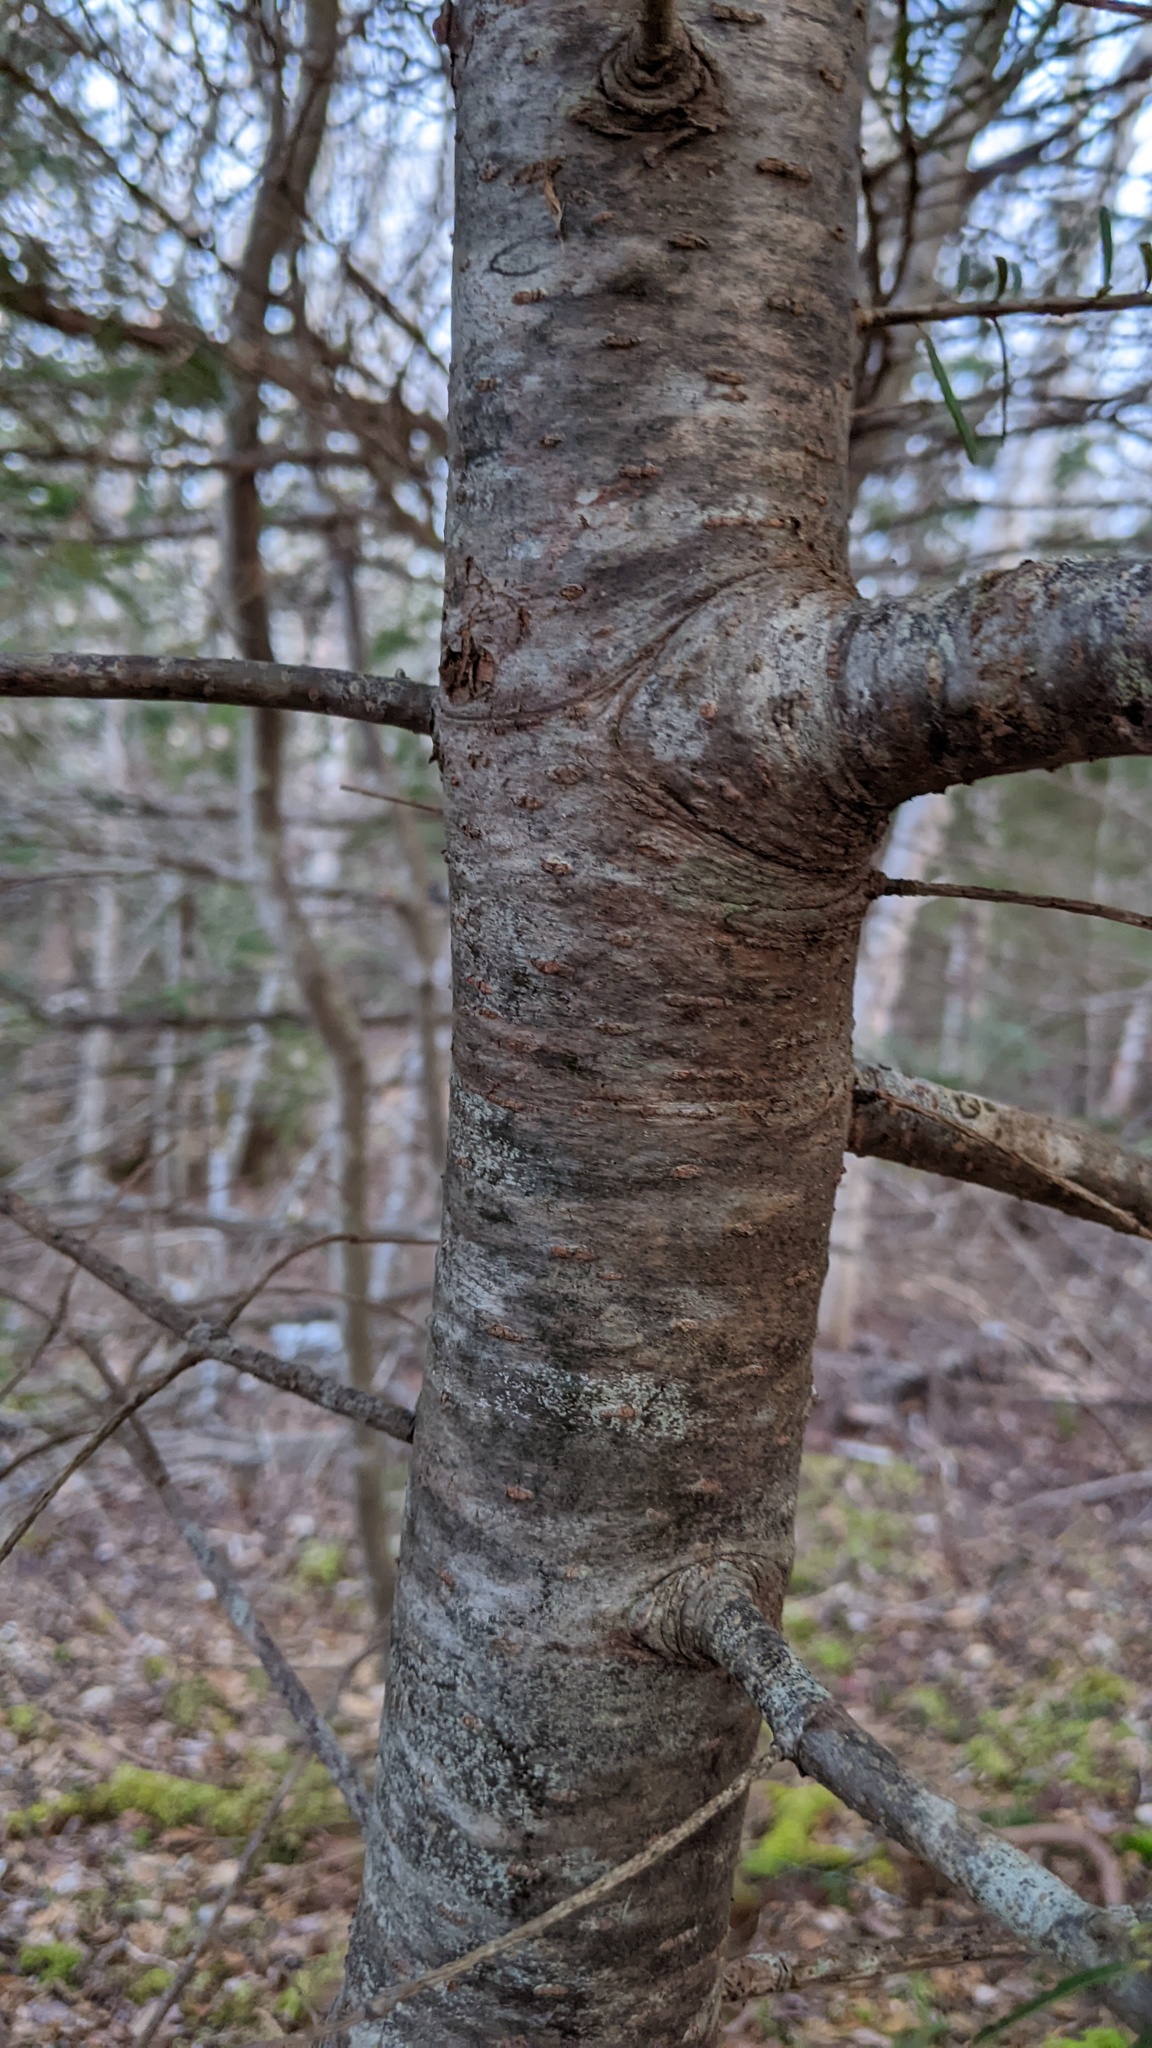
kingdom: Plantae
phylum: Tracheophyta
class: Pinopsida
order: Pinales
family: Pinaceae
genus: Abies
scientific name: Abies balsamea
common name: Balsam fir
